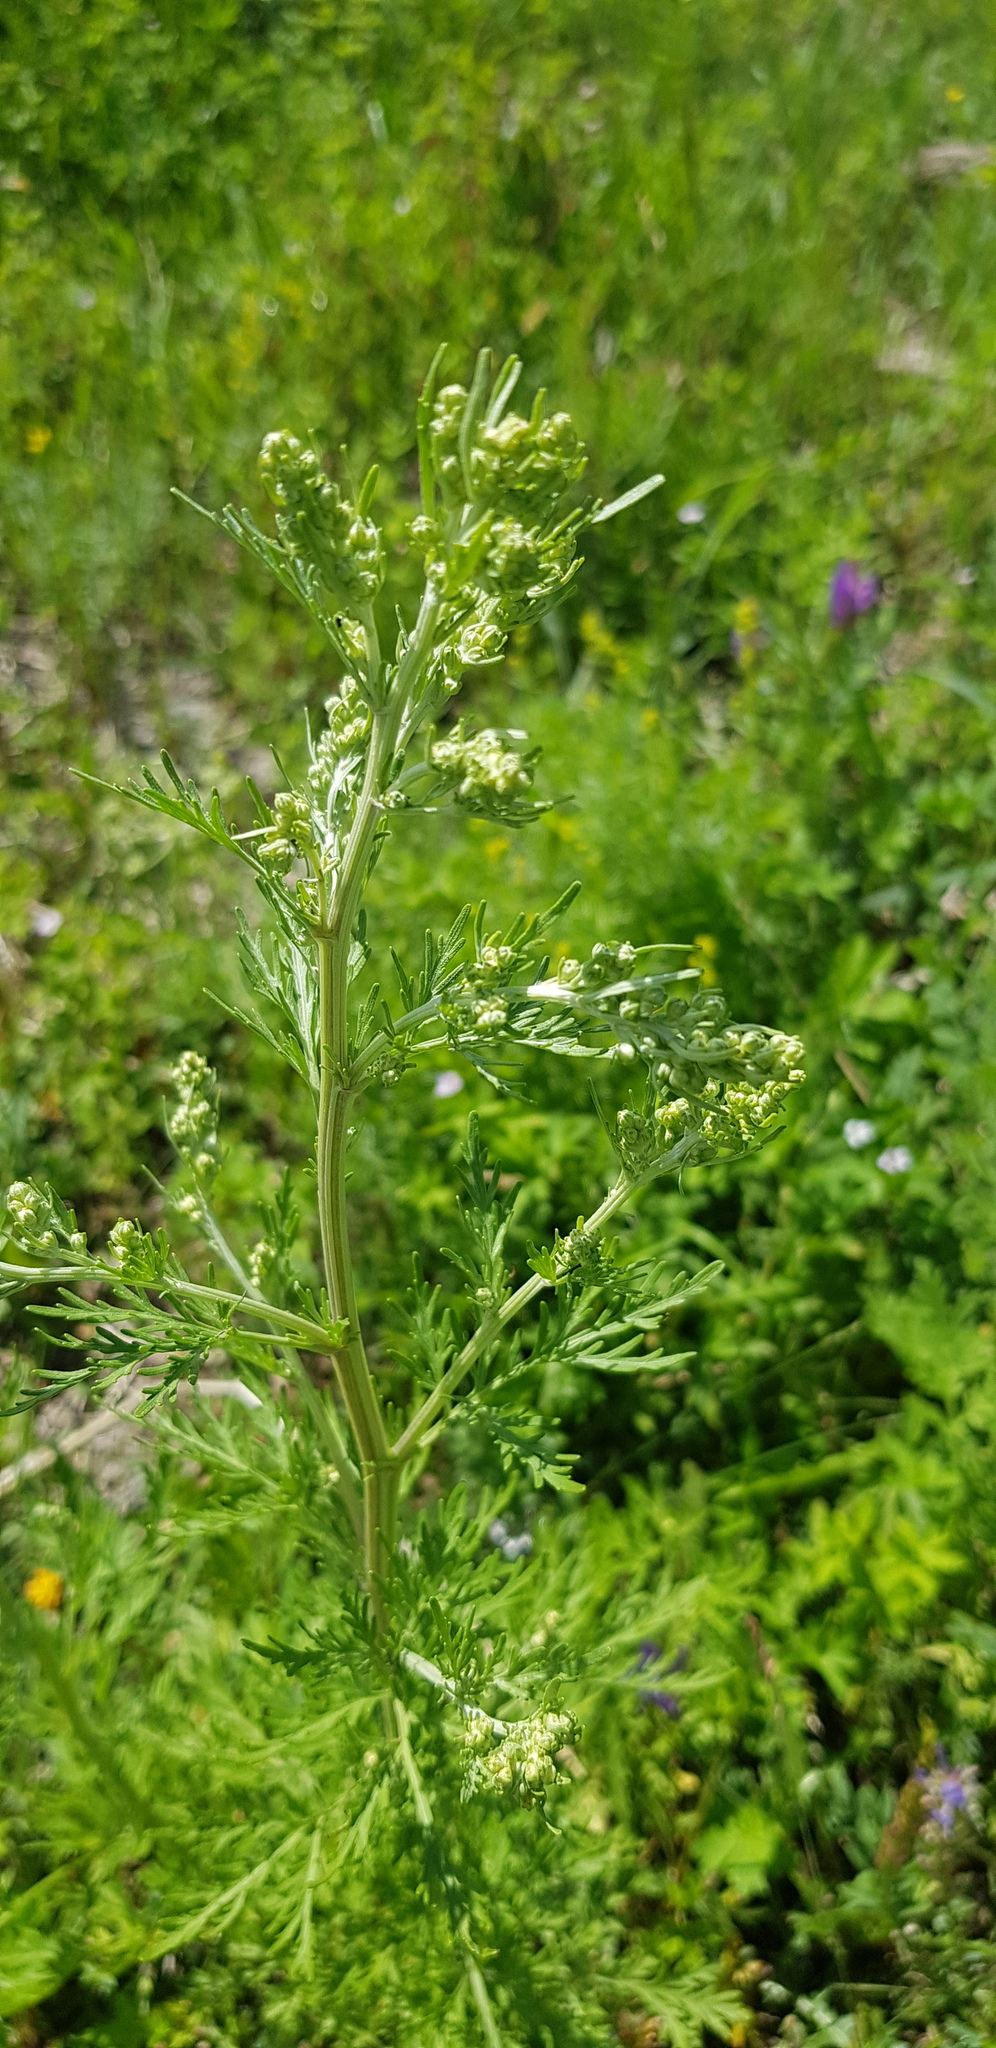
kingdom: Plantae
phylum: Tracheophyta
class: Magnoliopsida
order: Asterales
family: Asteraceae
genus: Artemisia
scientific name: Artemisia sieversiana
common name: Sieversian wormwood
